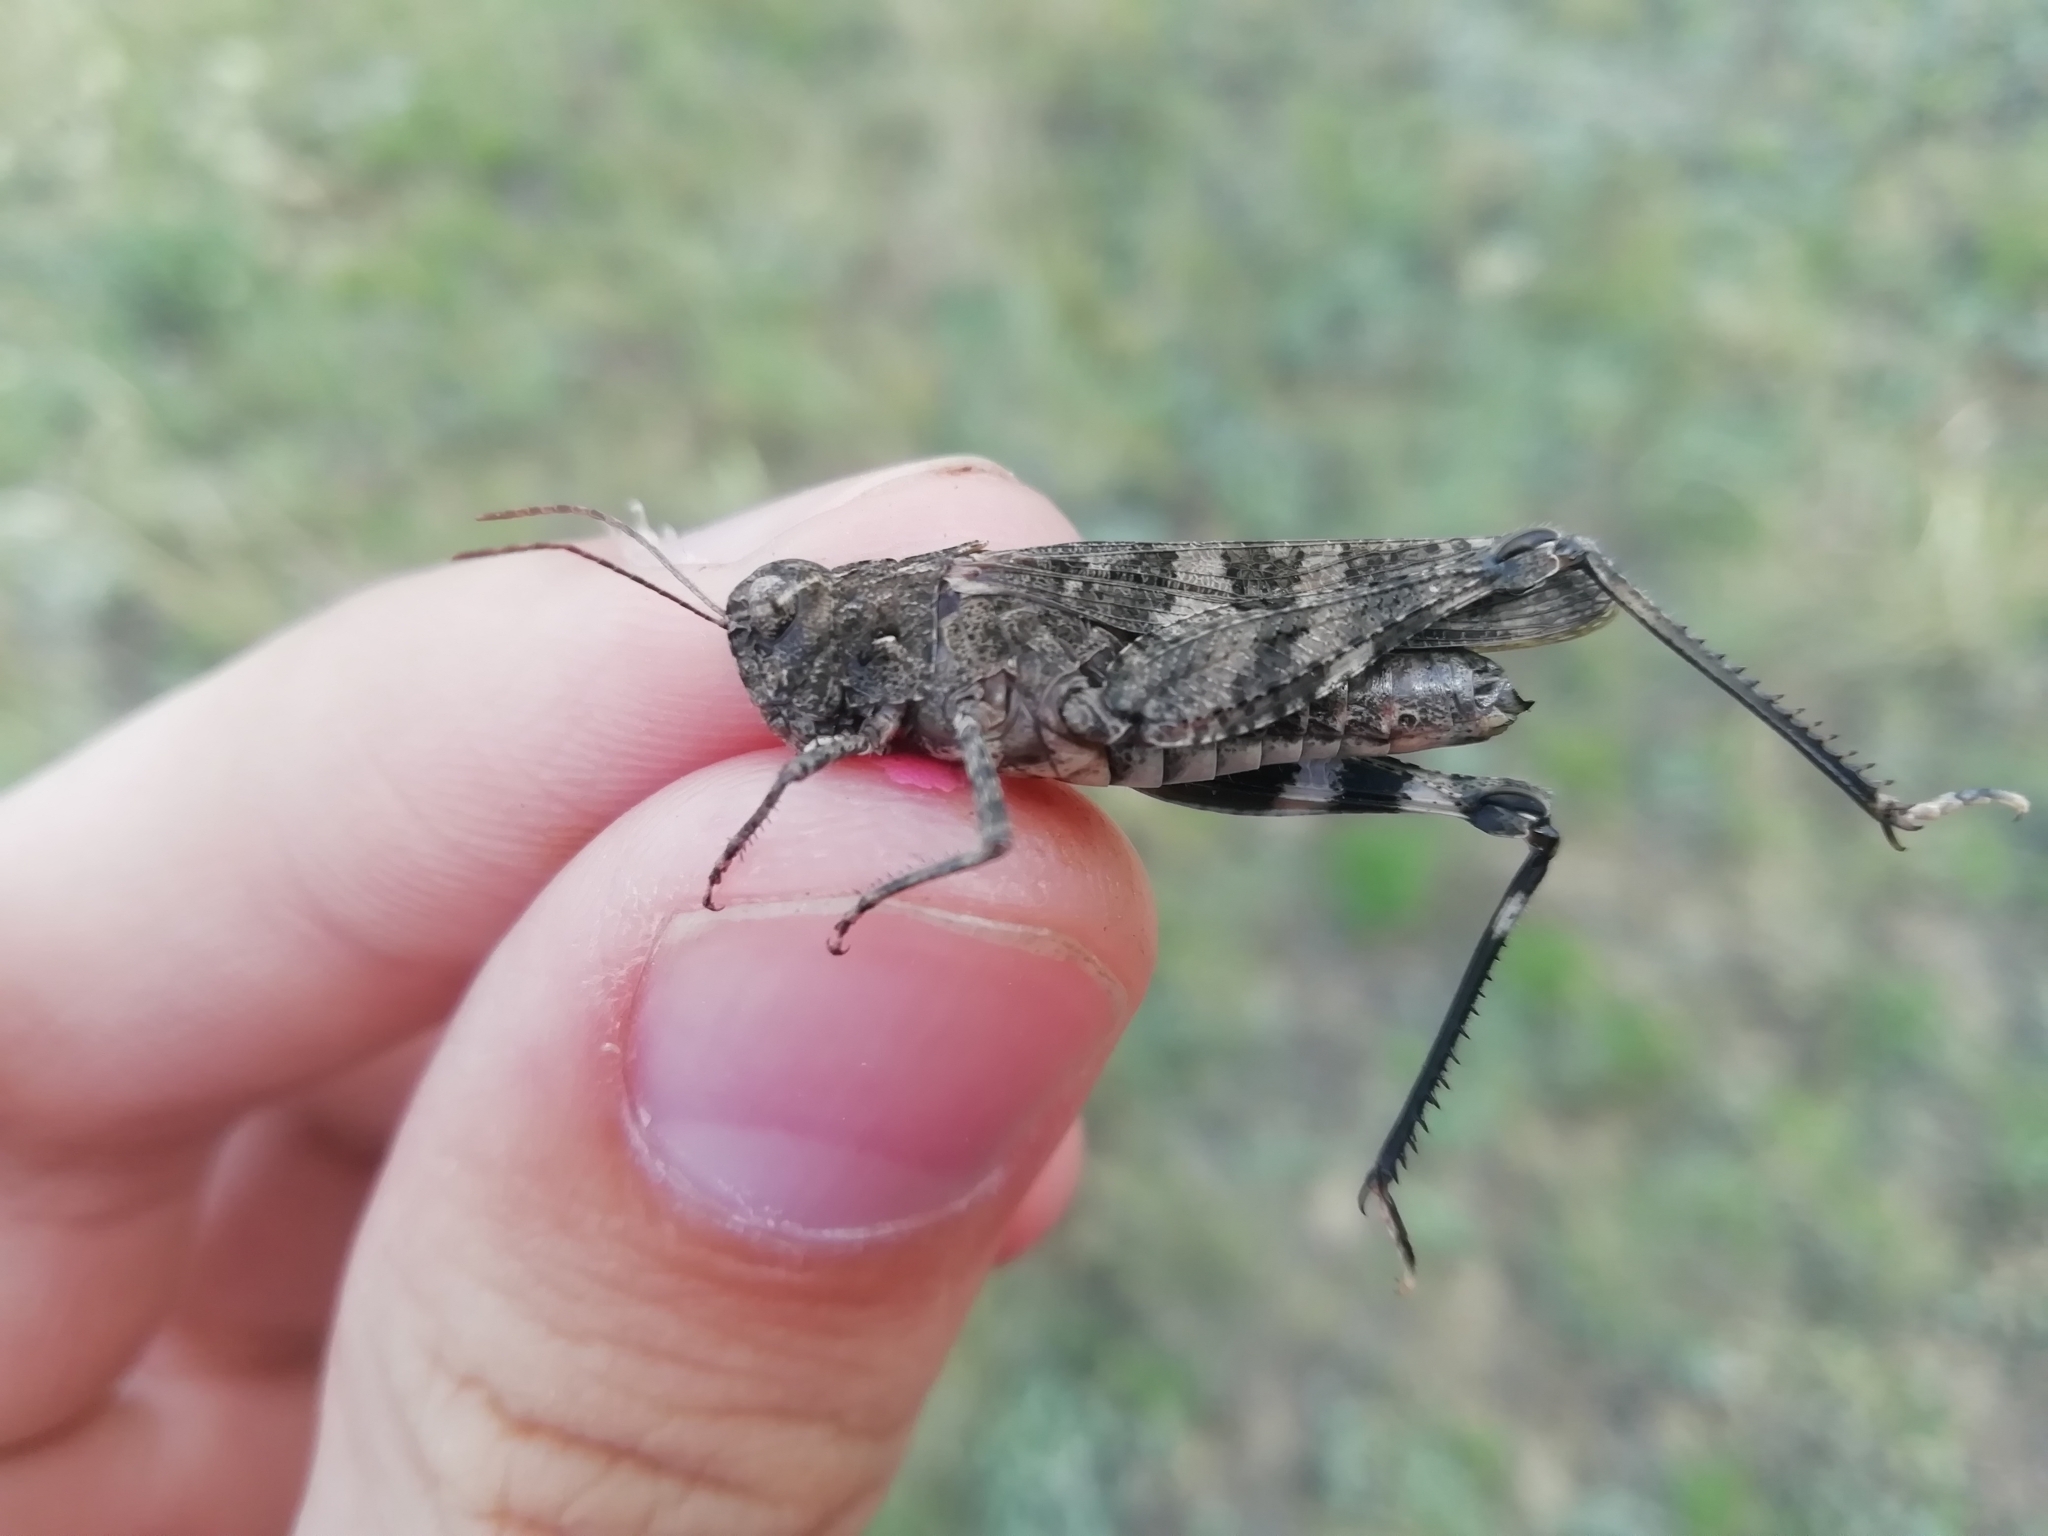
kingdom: Animalia
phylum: Arthropoda
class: Insecta
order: Orthoptera
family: Acrididae
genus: Celes
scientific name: Celes variabilis
